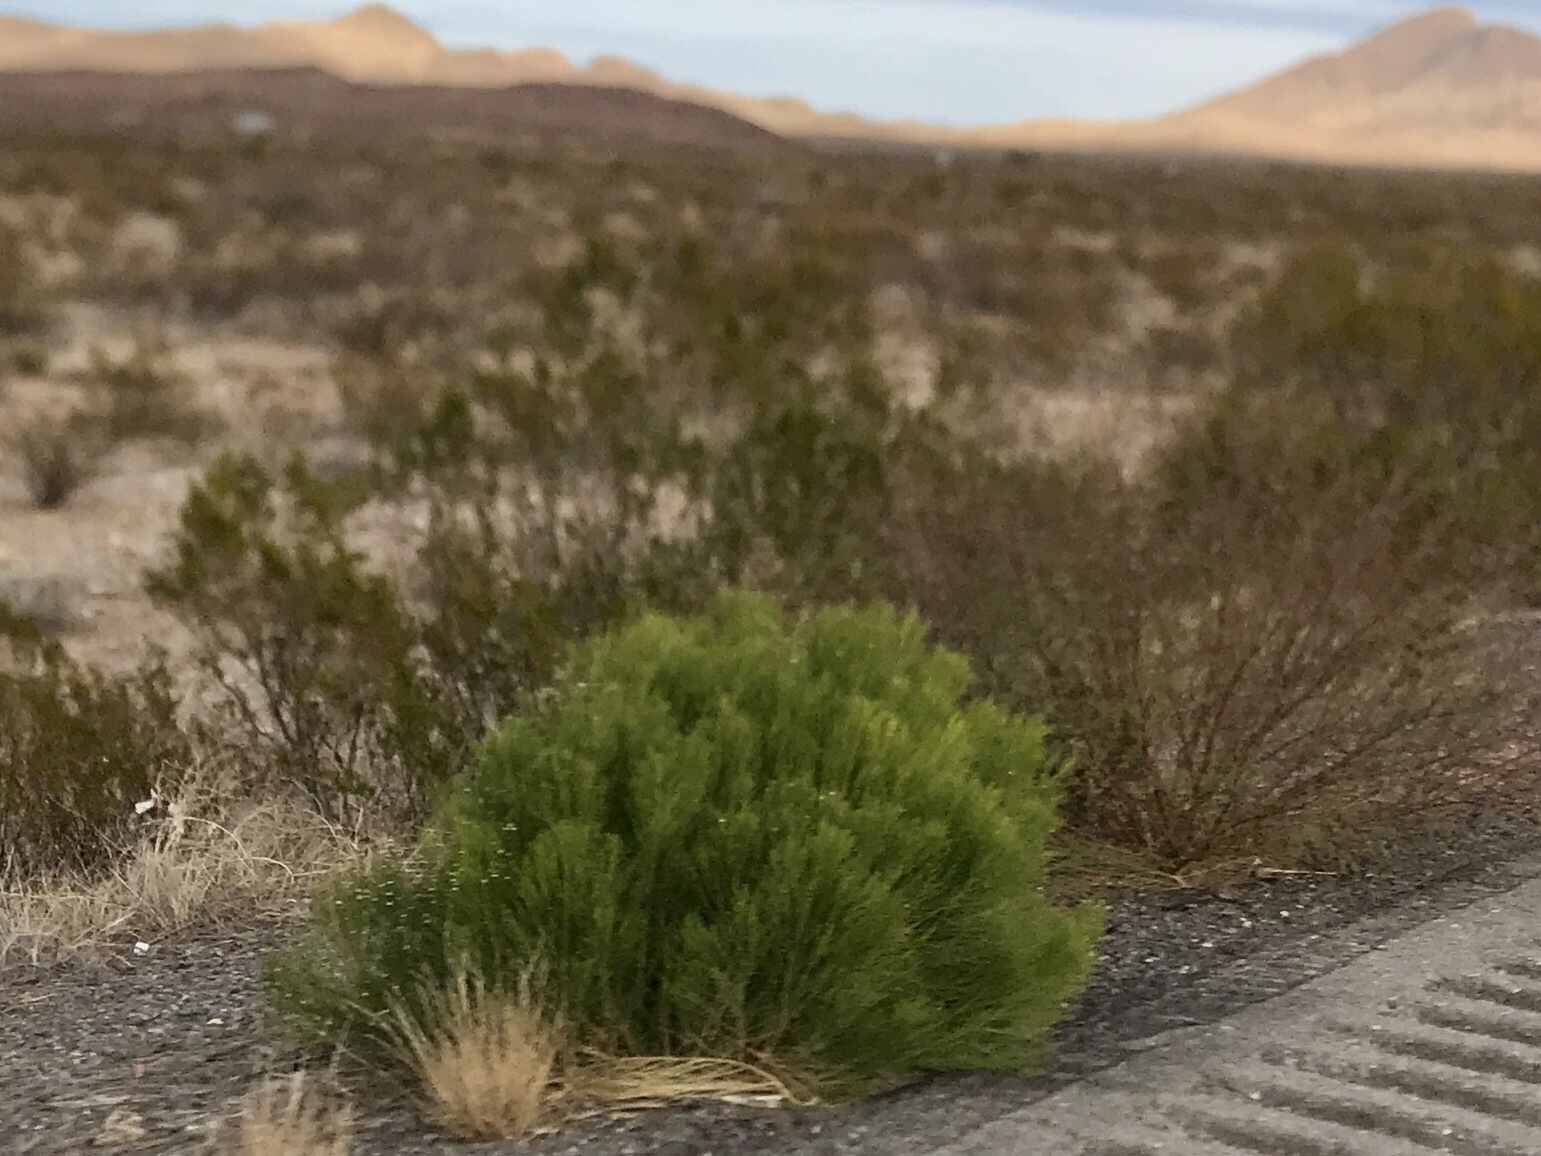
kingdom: Plantae
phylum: Tracheophyta
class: Magnoliopsida
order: Asterales
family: Asteraceae
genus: Baccharis
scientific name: Baccharis sarothroides
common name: Desert-broom
